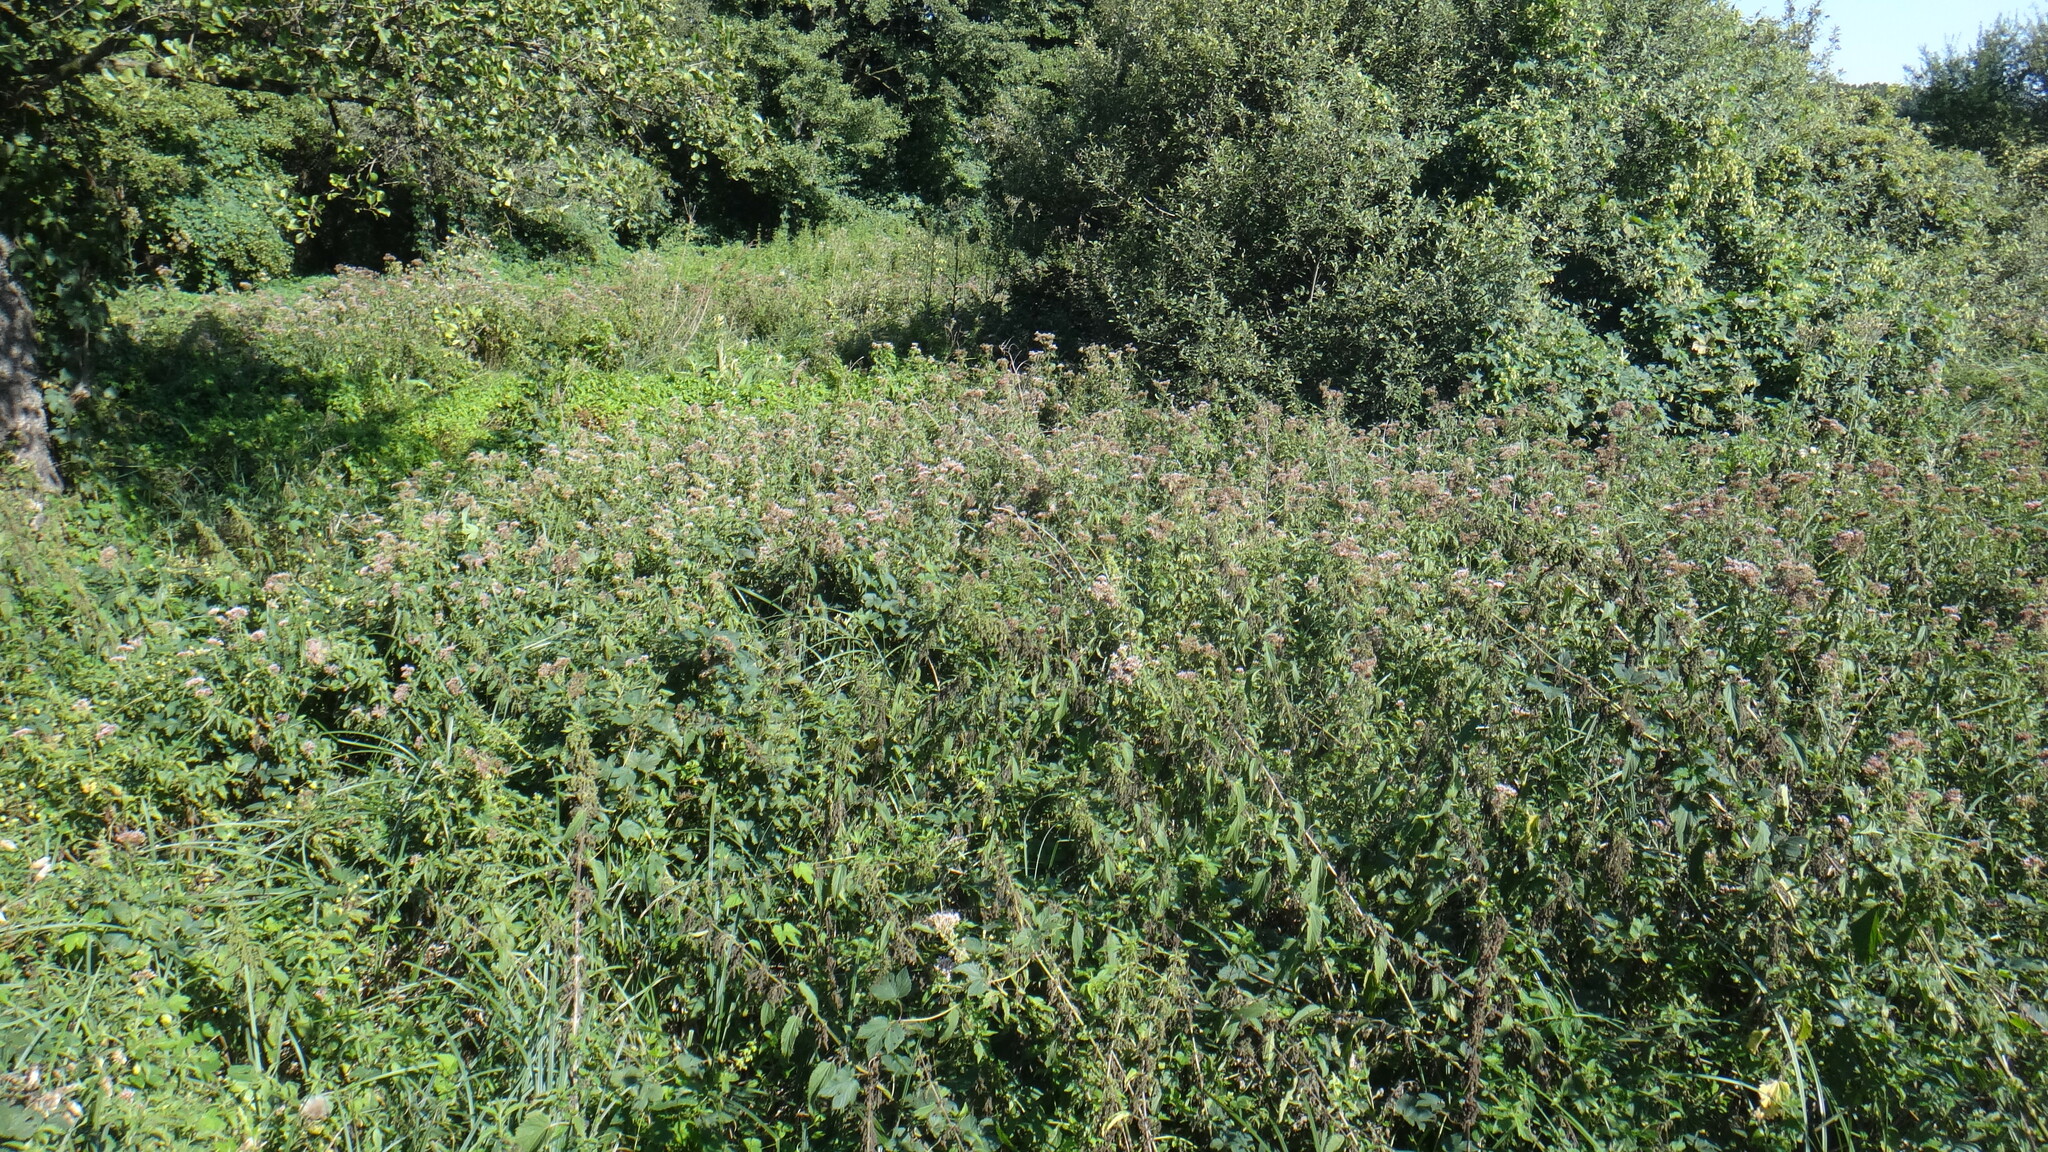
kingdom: Plantae
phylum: Tracheophyta
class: Magnoliopsida
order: Asterales
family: Asteraceae
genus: Eupatorium
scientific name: Eupatorium cannabinum
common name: Hemp-agrimony
